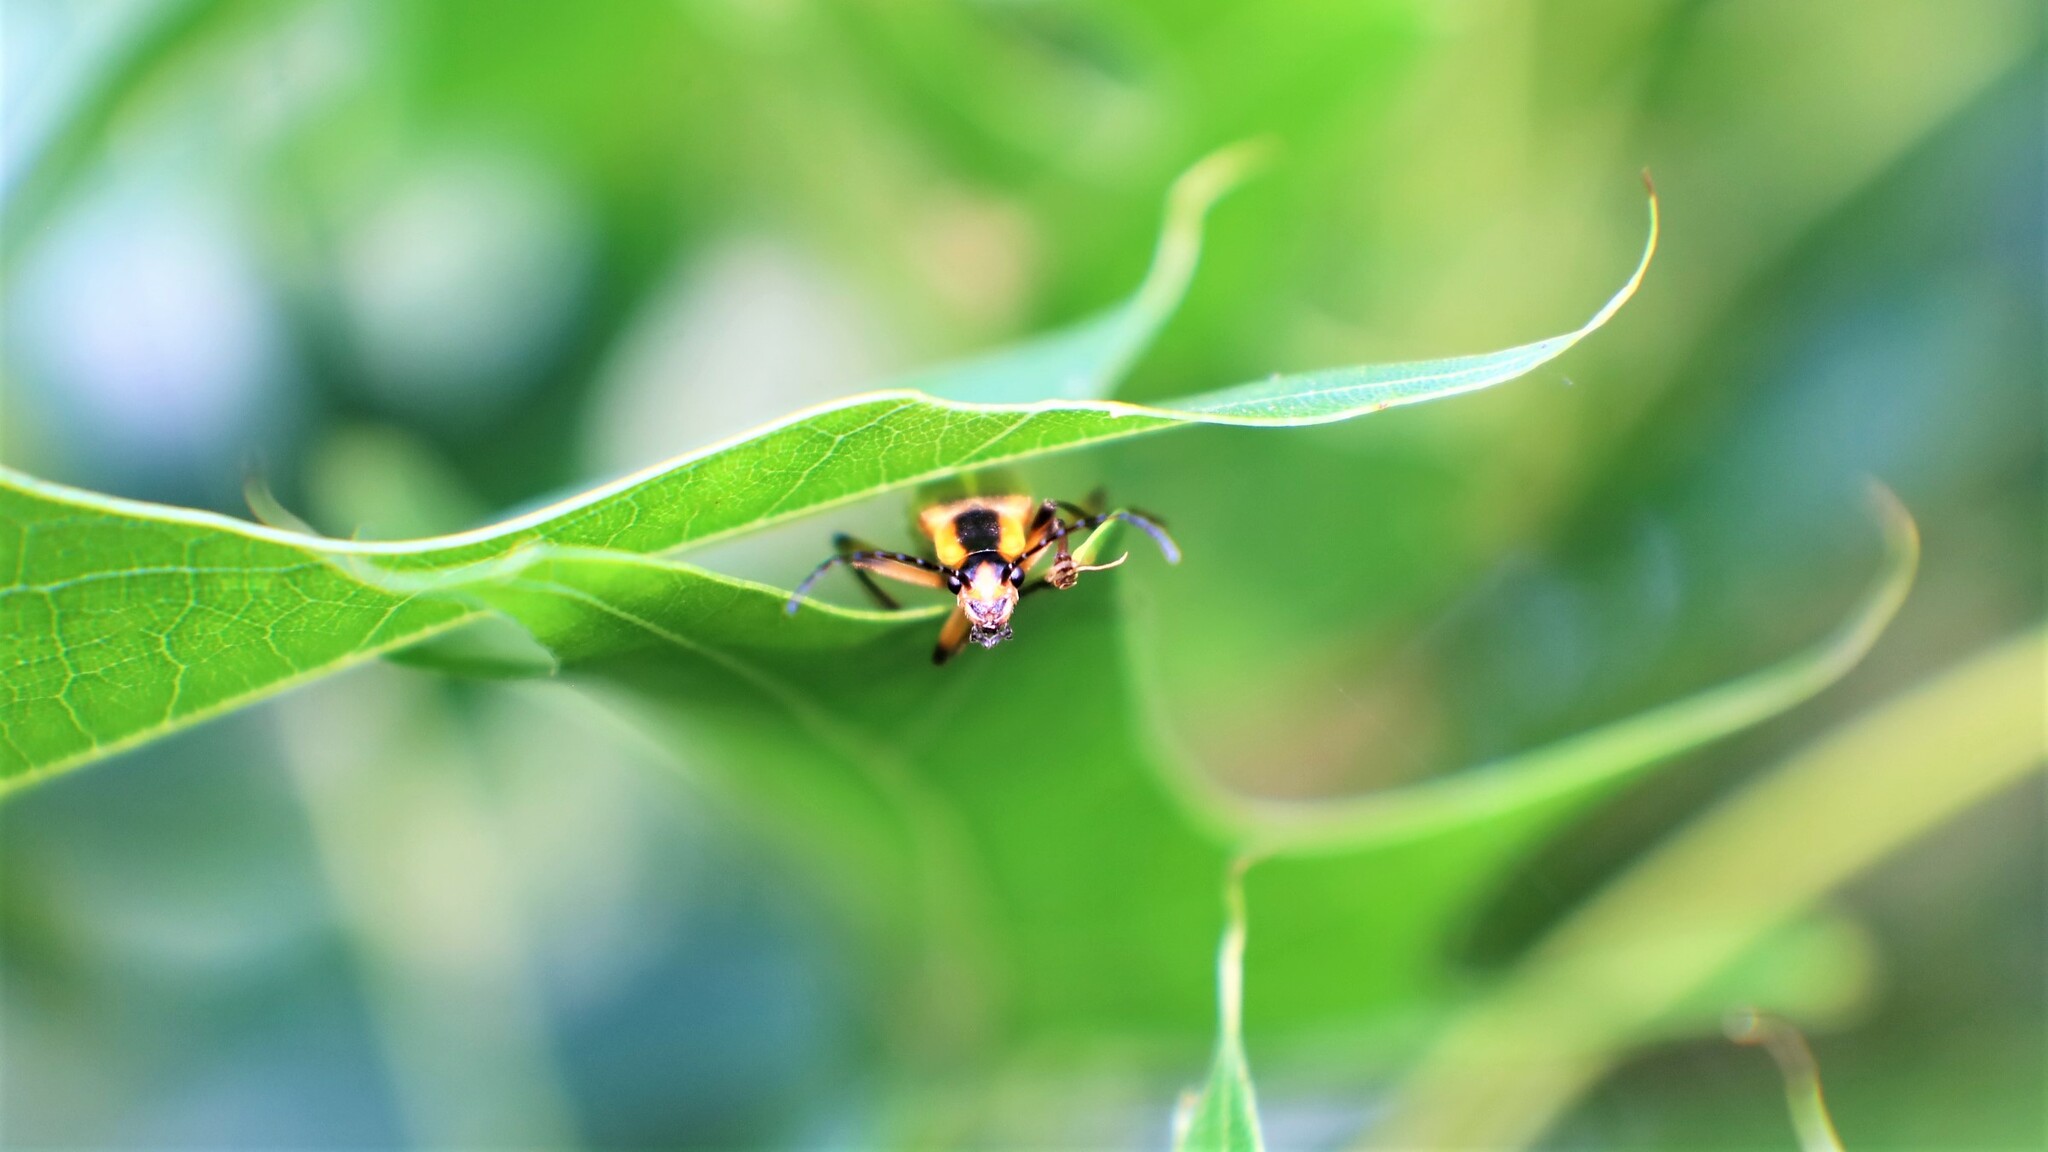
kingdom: Animalia
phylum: Arthropoda
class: Insecta
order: Coleoptera
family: Cantharidae
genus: Chauliognathus
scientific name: Chauliognathus marginatus
